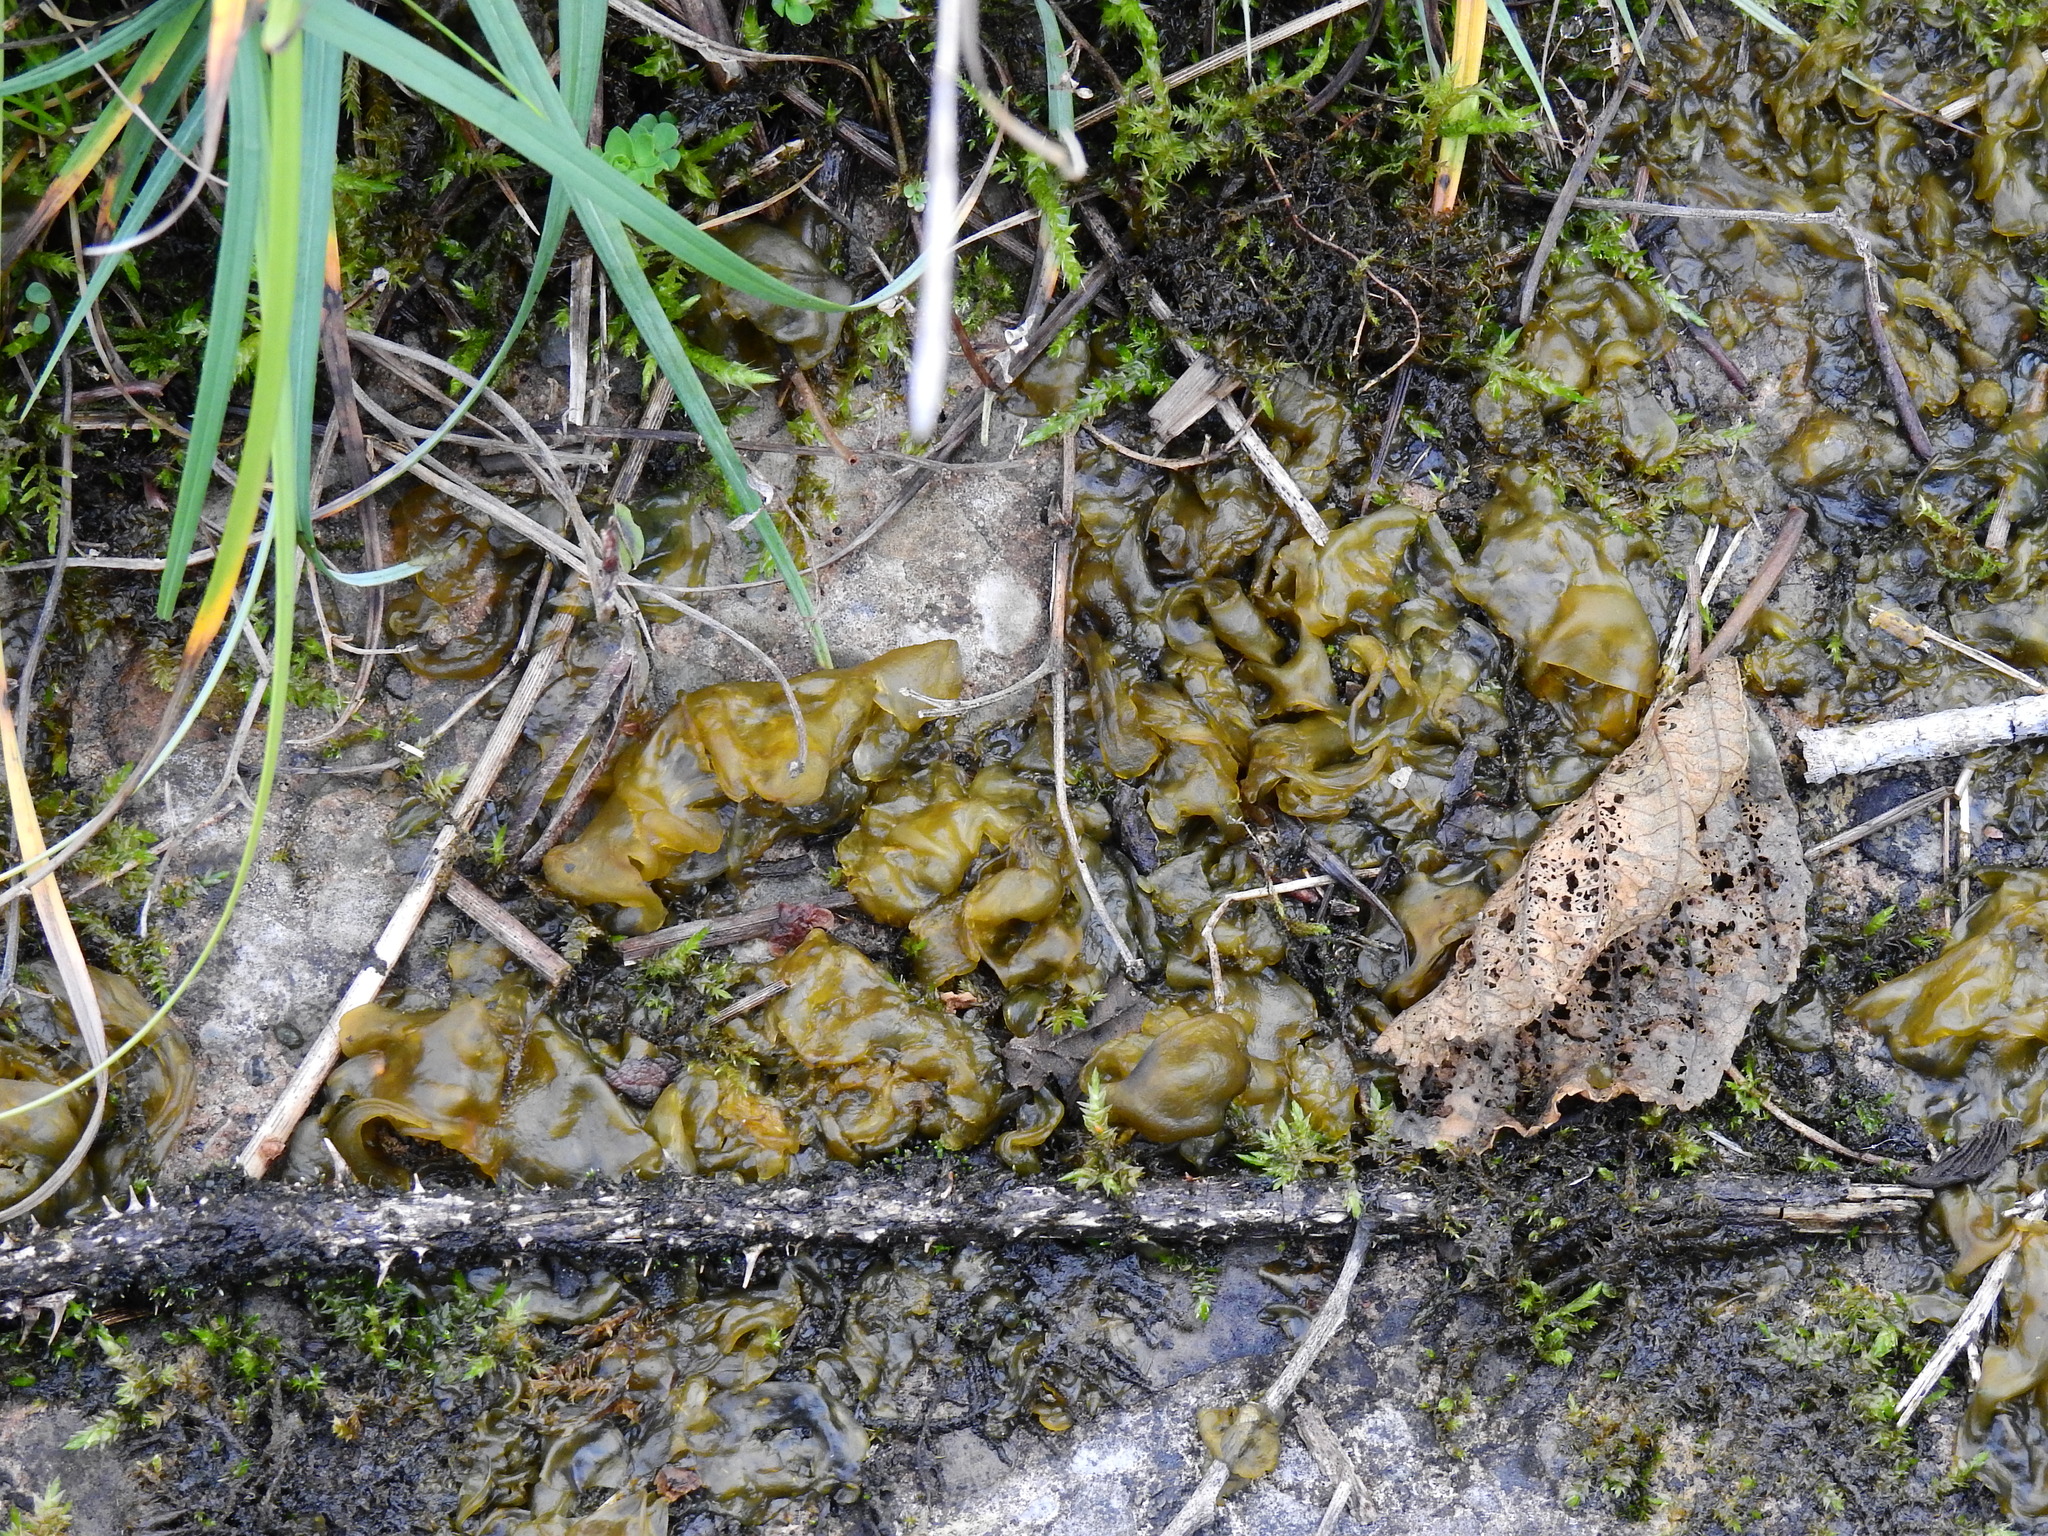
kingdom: Bacteria
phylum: Cyanobacteria
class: Cyanobacteriia
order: Cyanobacteriales
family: Nostocaceae
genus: Nostoc
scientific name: Nostoc commune
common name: Star jelly
